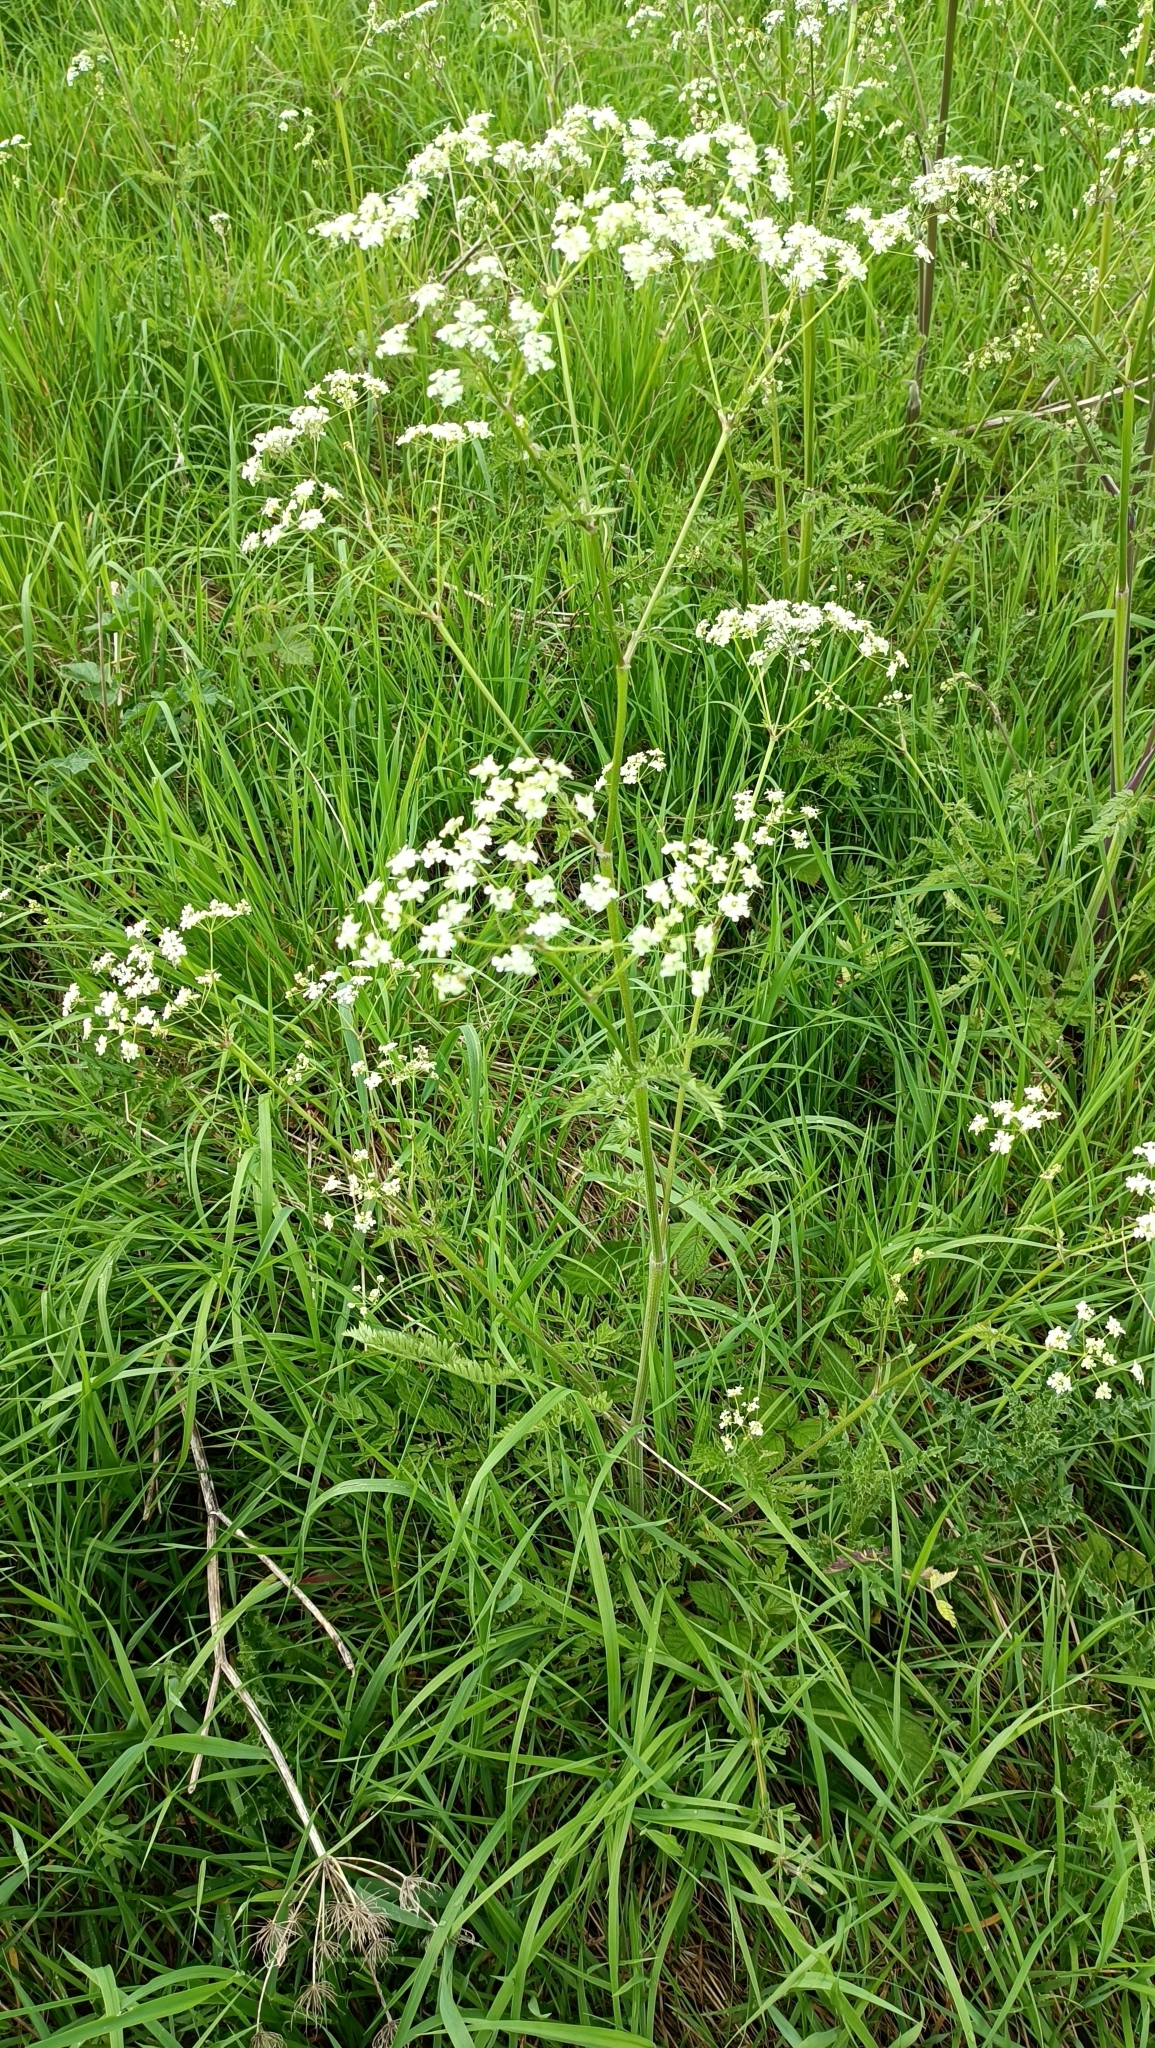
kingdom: Plantae
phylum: Tracheophyta
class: Magnoliopsida
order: Apiales
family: Apiaceae
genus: Anthriscus
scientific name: Anthriscus sylvestris
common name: Cow parsley
